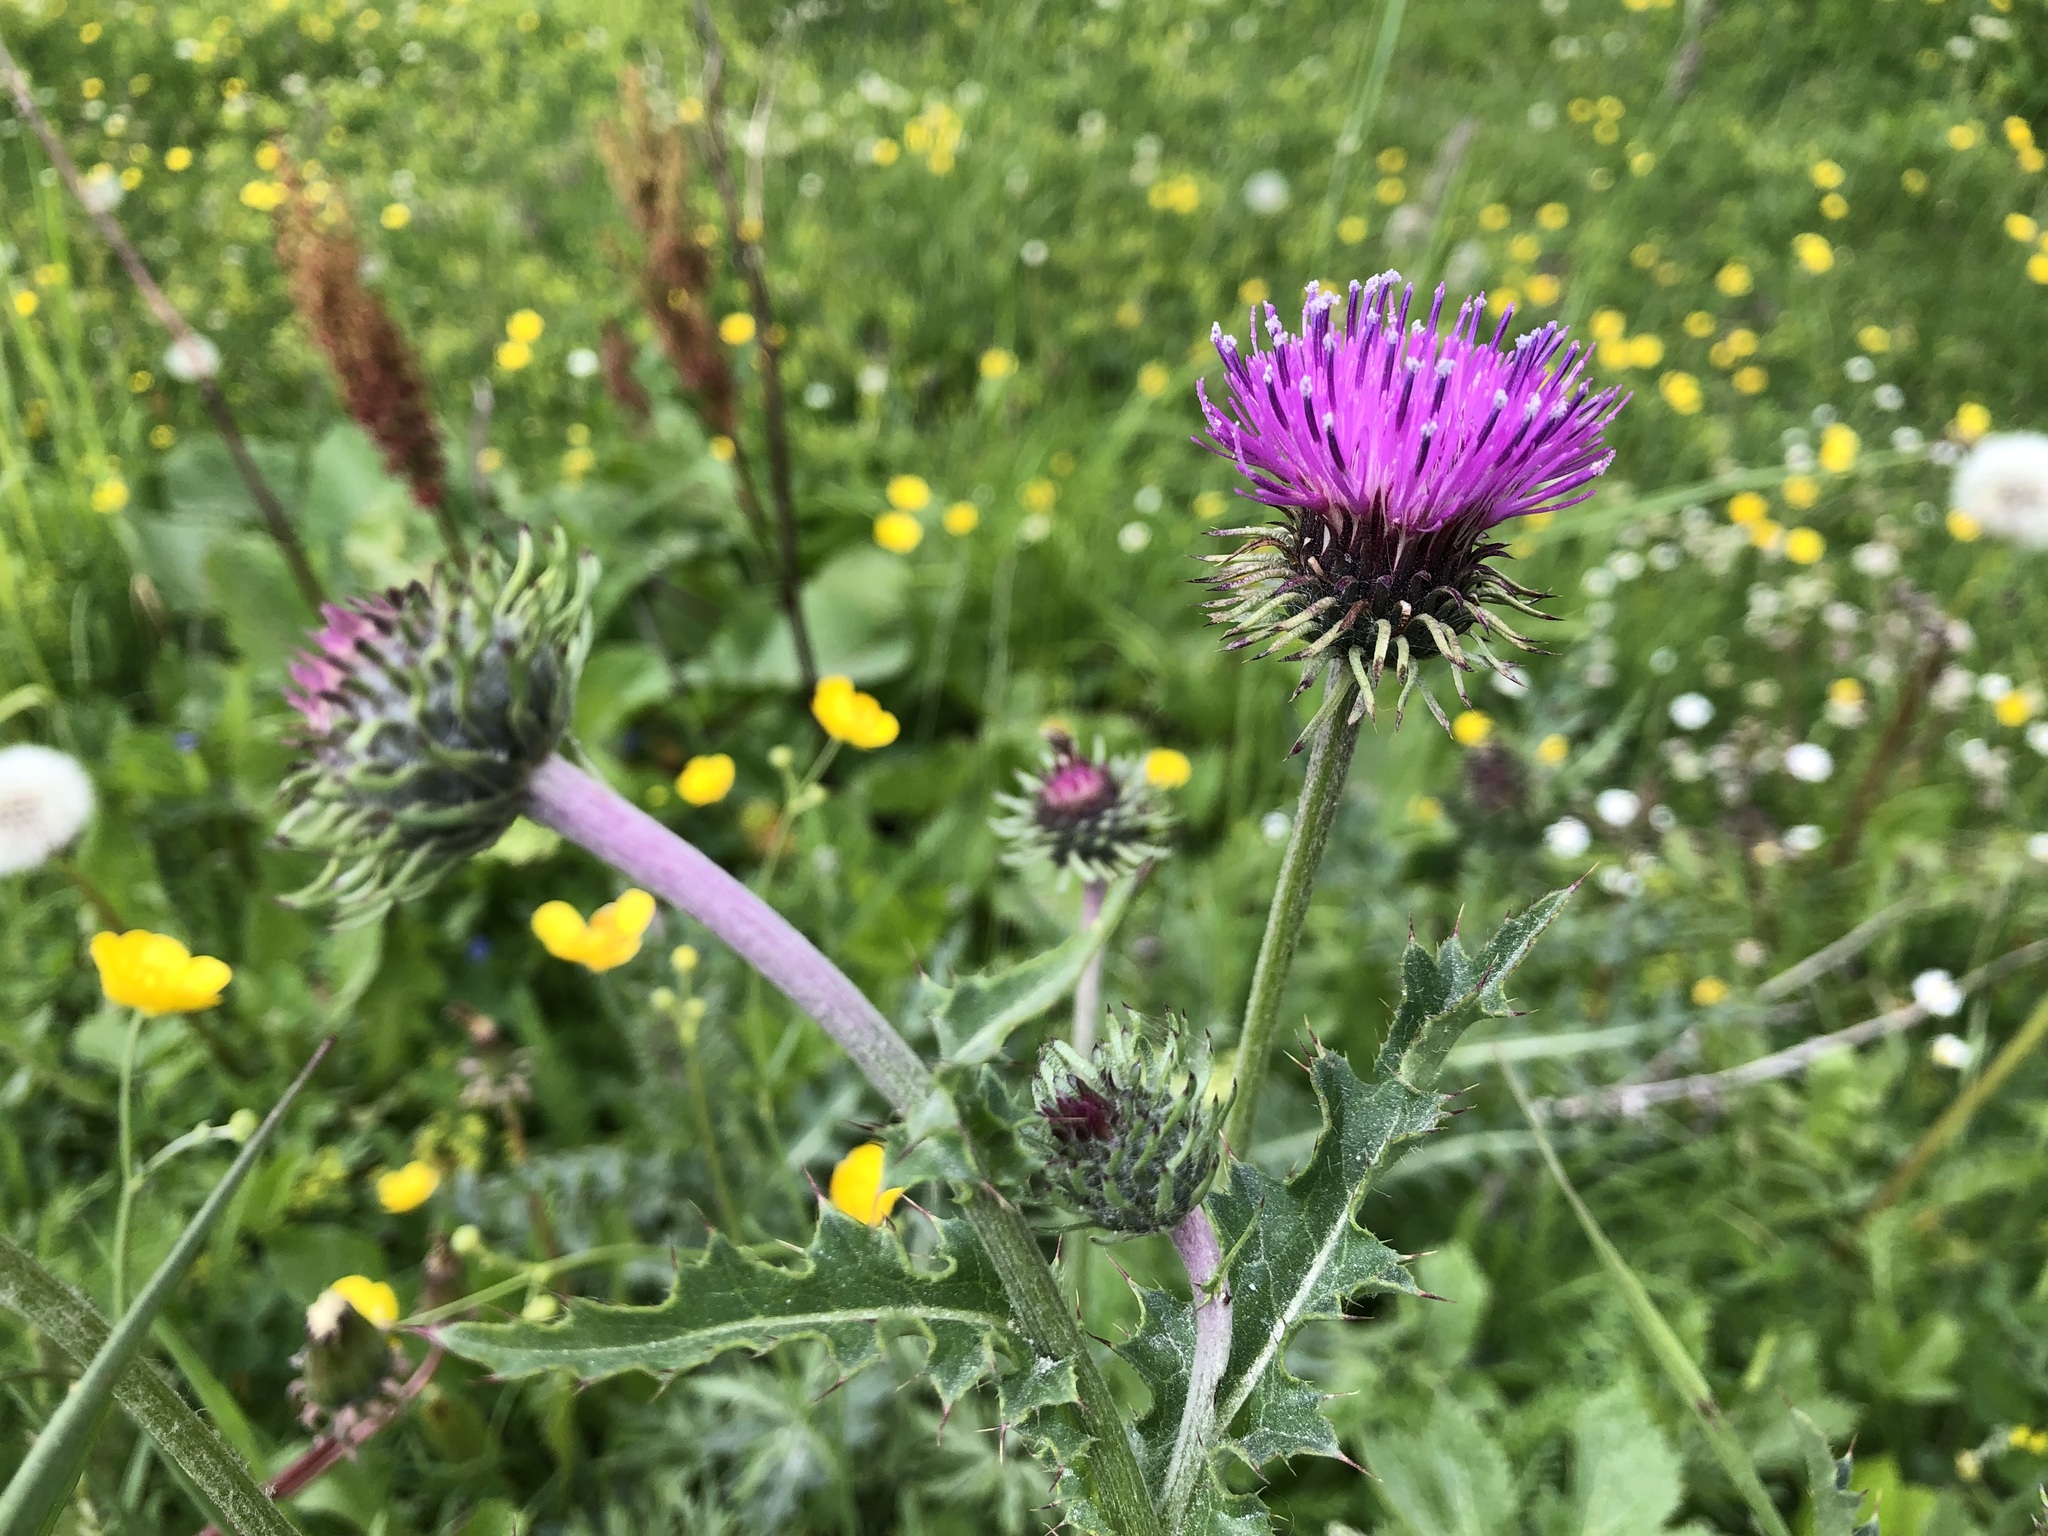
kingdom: Plantae
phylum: Tracheophyta
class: Magnoliopsida
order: Asterales
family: Asteraceae
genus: Carduus
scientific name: Carduus defloratus
